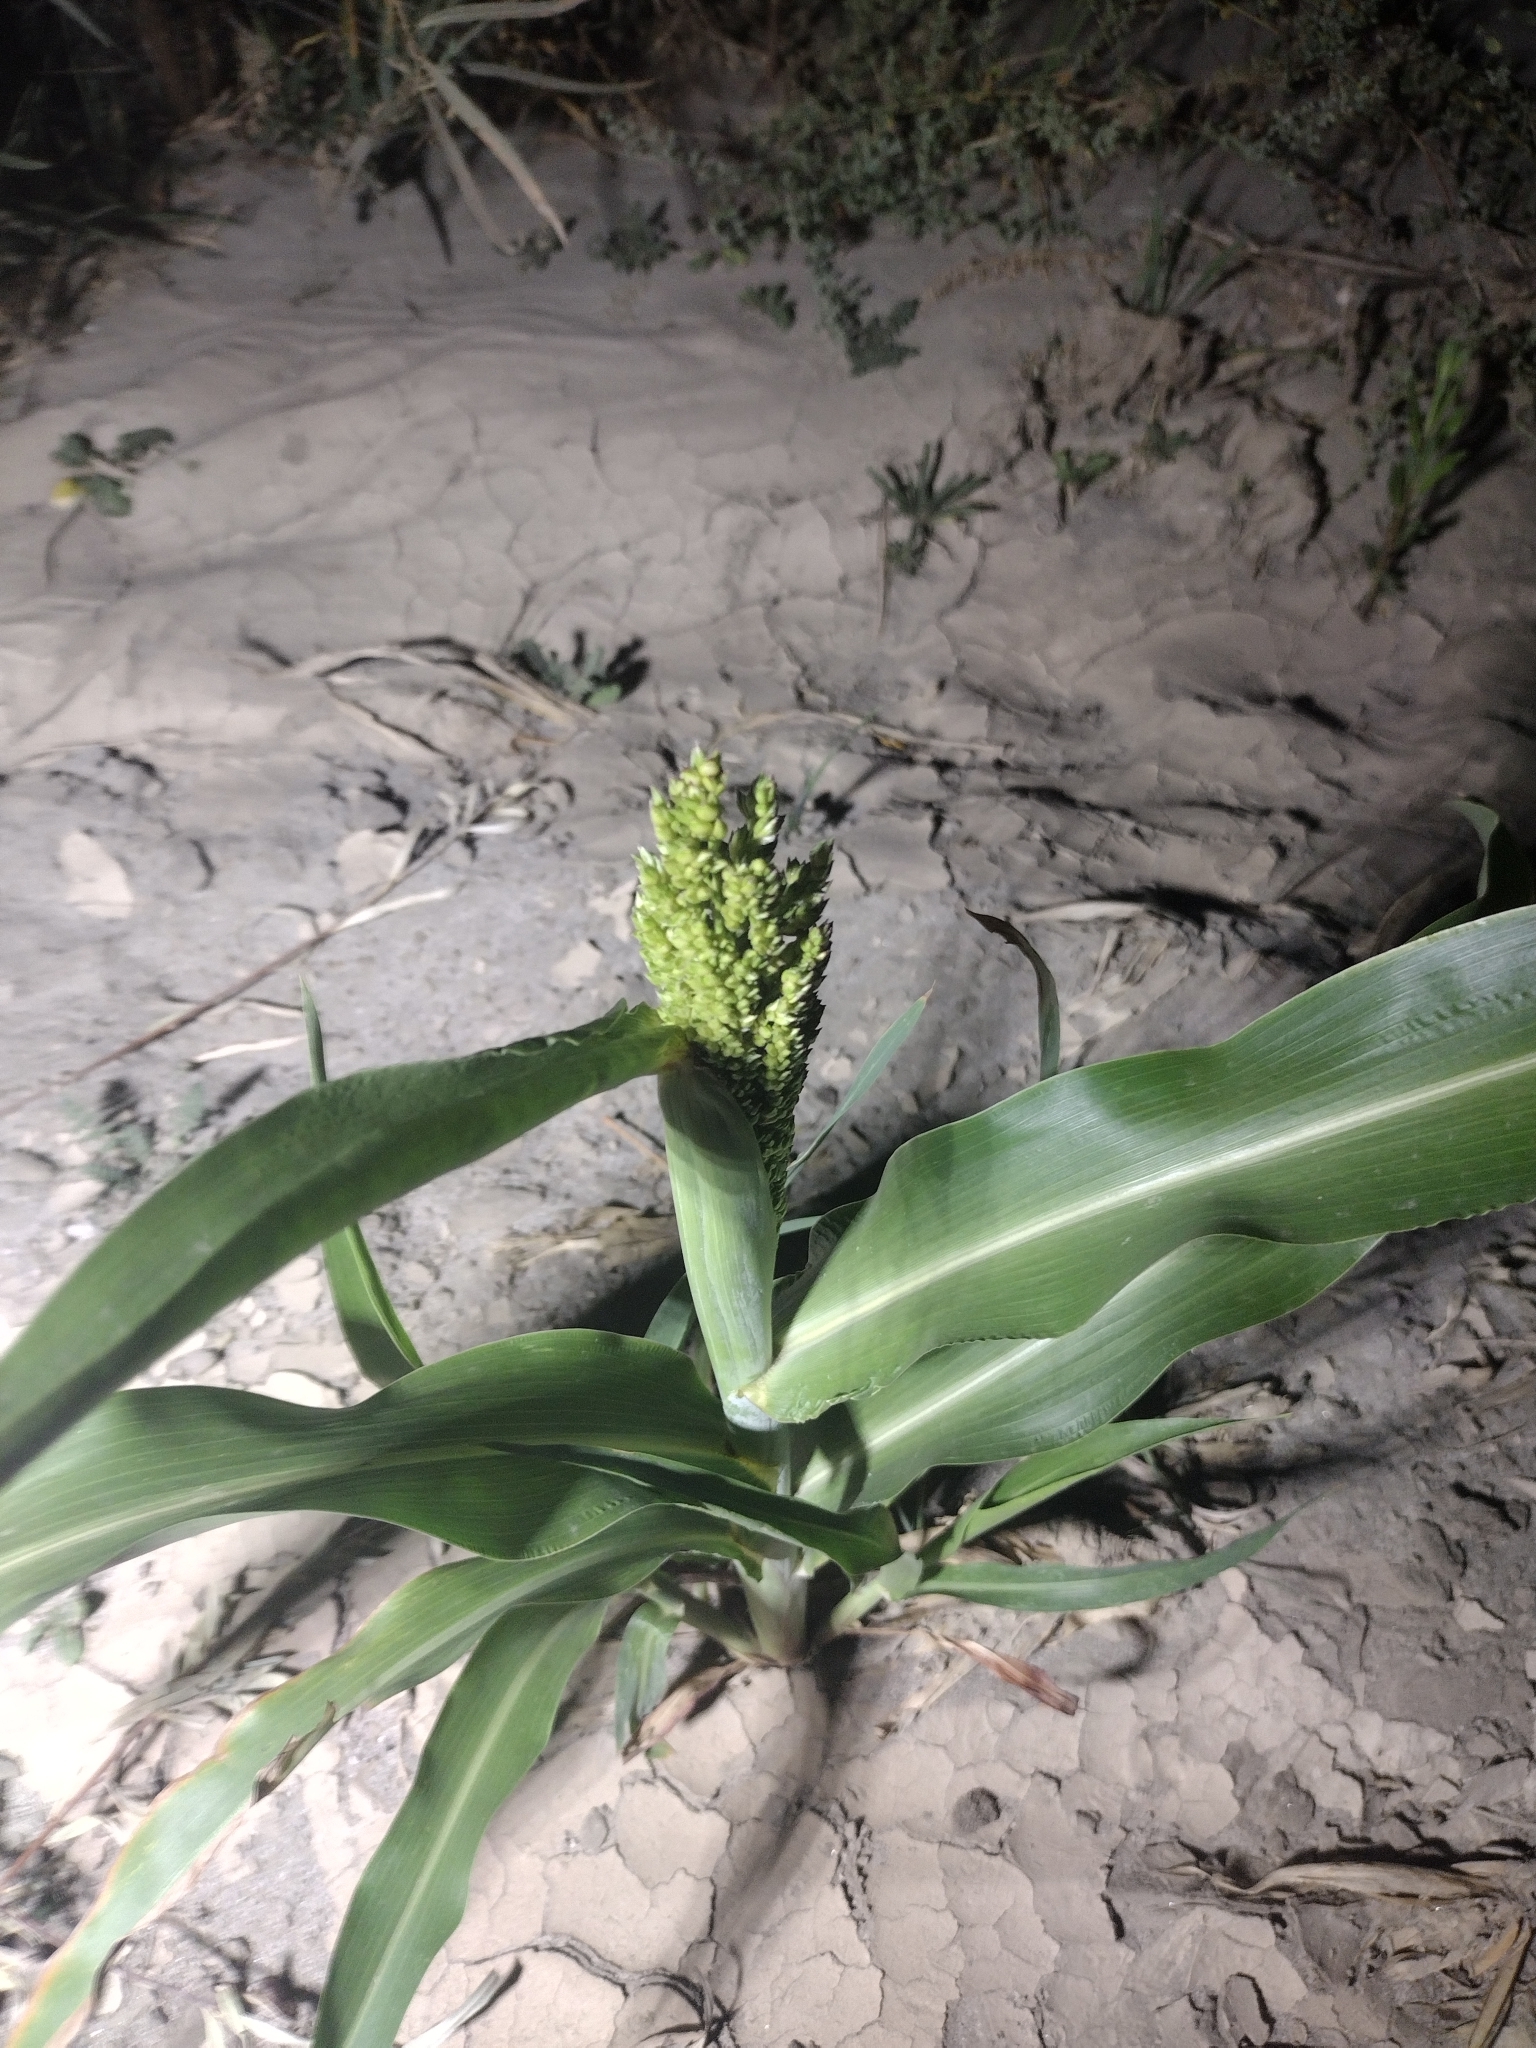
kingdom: Plantae
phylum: Tracheophyta
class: Liliopsida
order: Poales
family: Poaceae
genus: Sorghum
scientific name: Sorghum bicolor
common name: Sorghum
